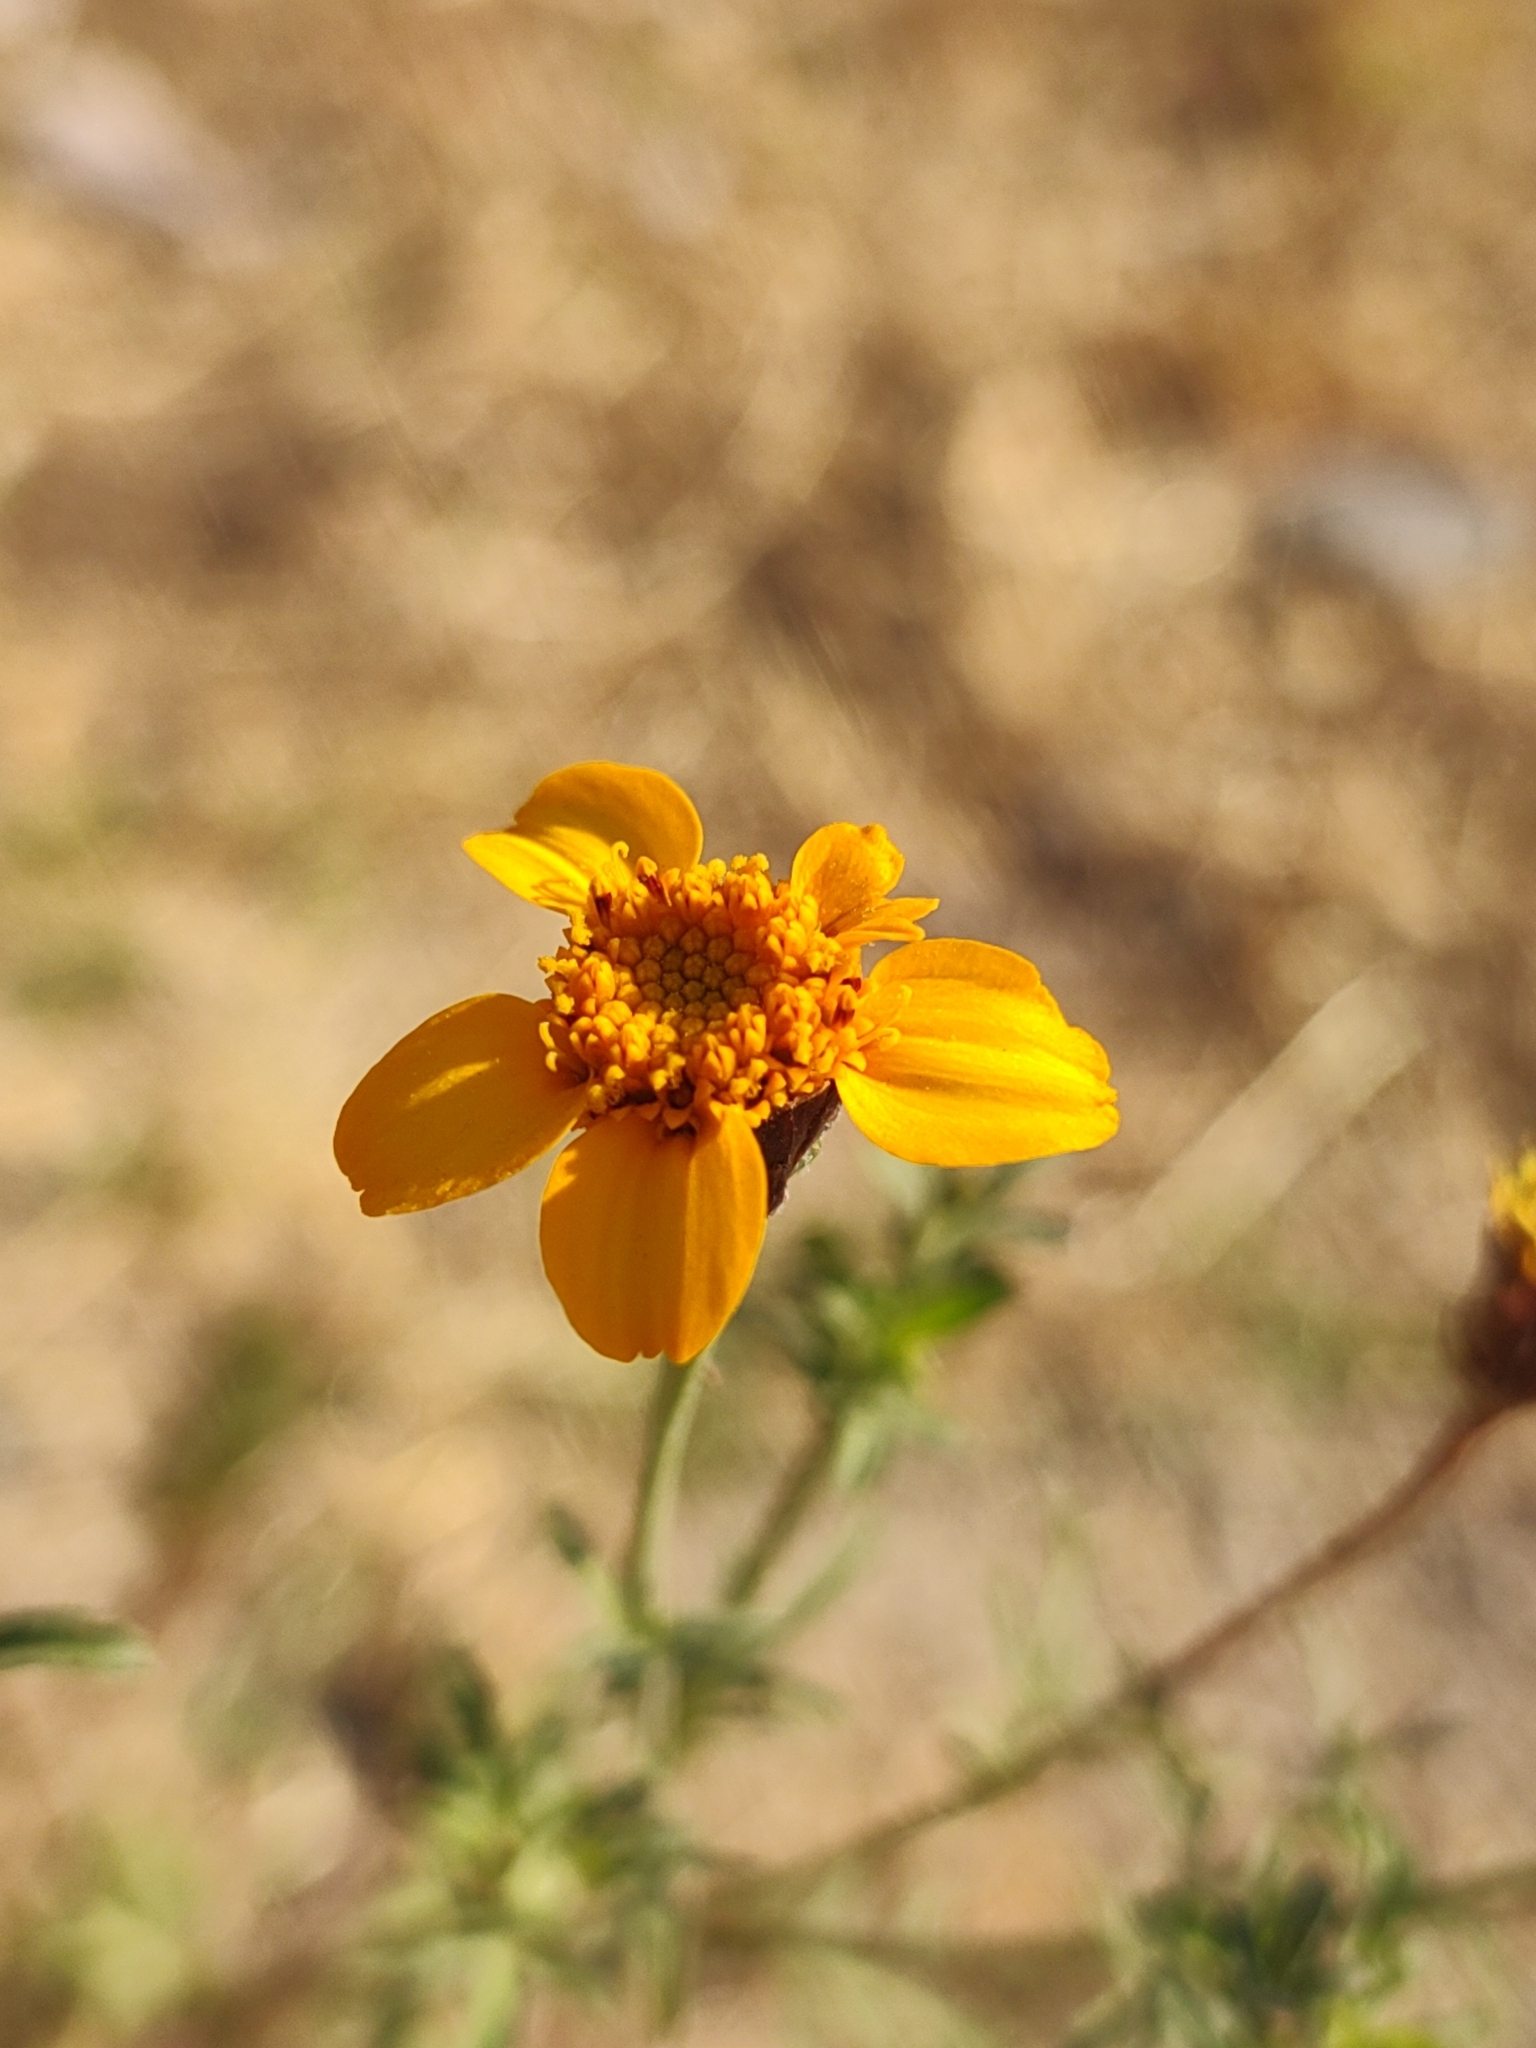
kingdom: Plantae
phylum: Tracheophyta
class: Magnoliopsida
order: Asterales
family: Asteraceae
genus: Dyssodia
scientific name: Dyssodia tagetiflora
